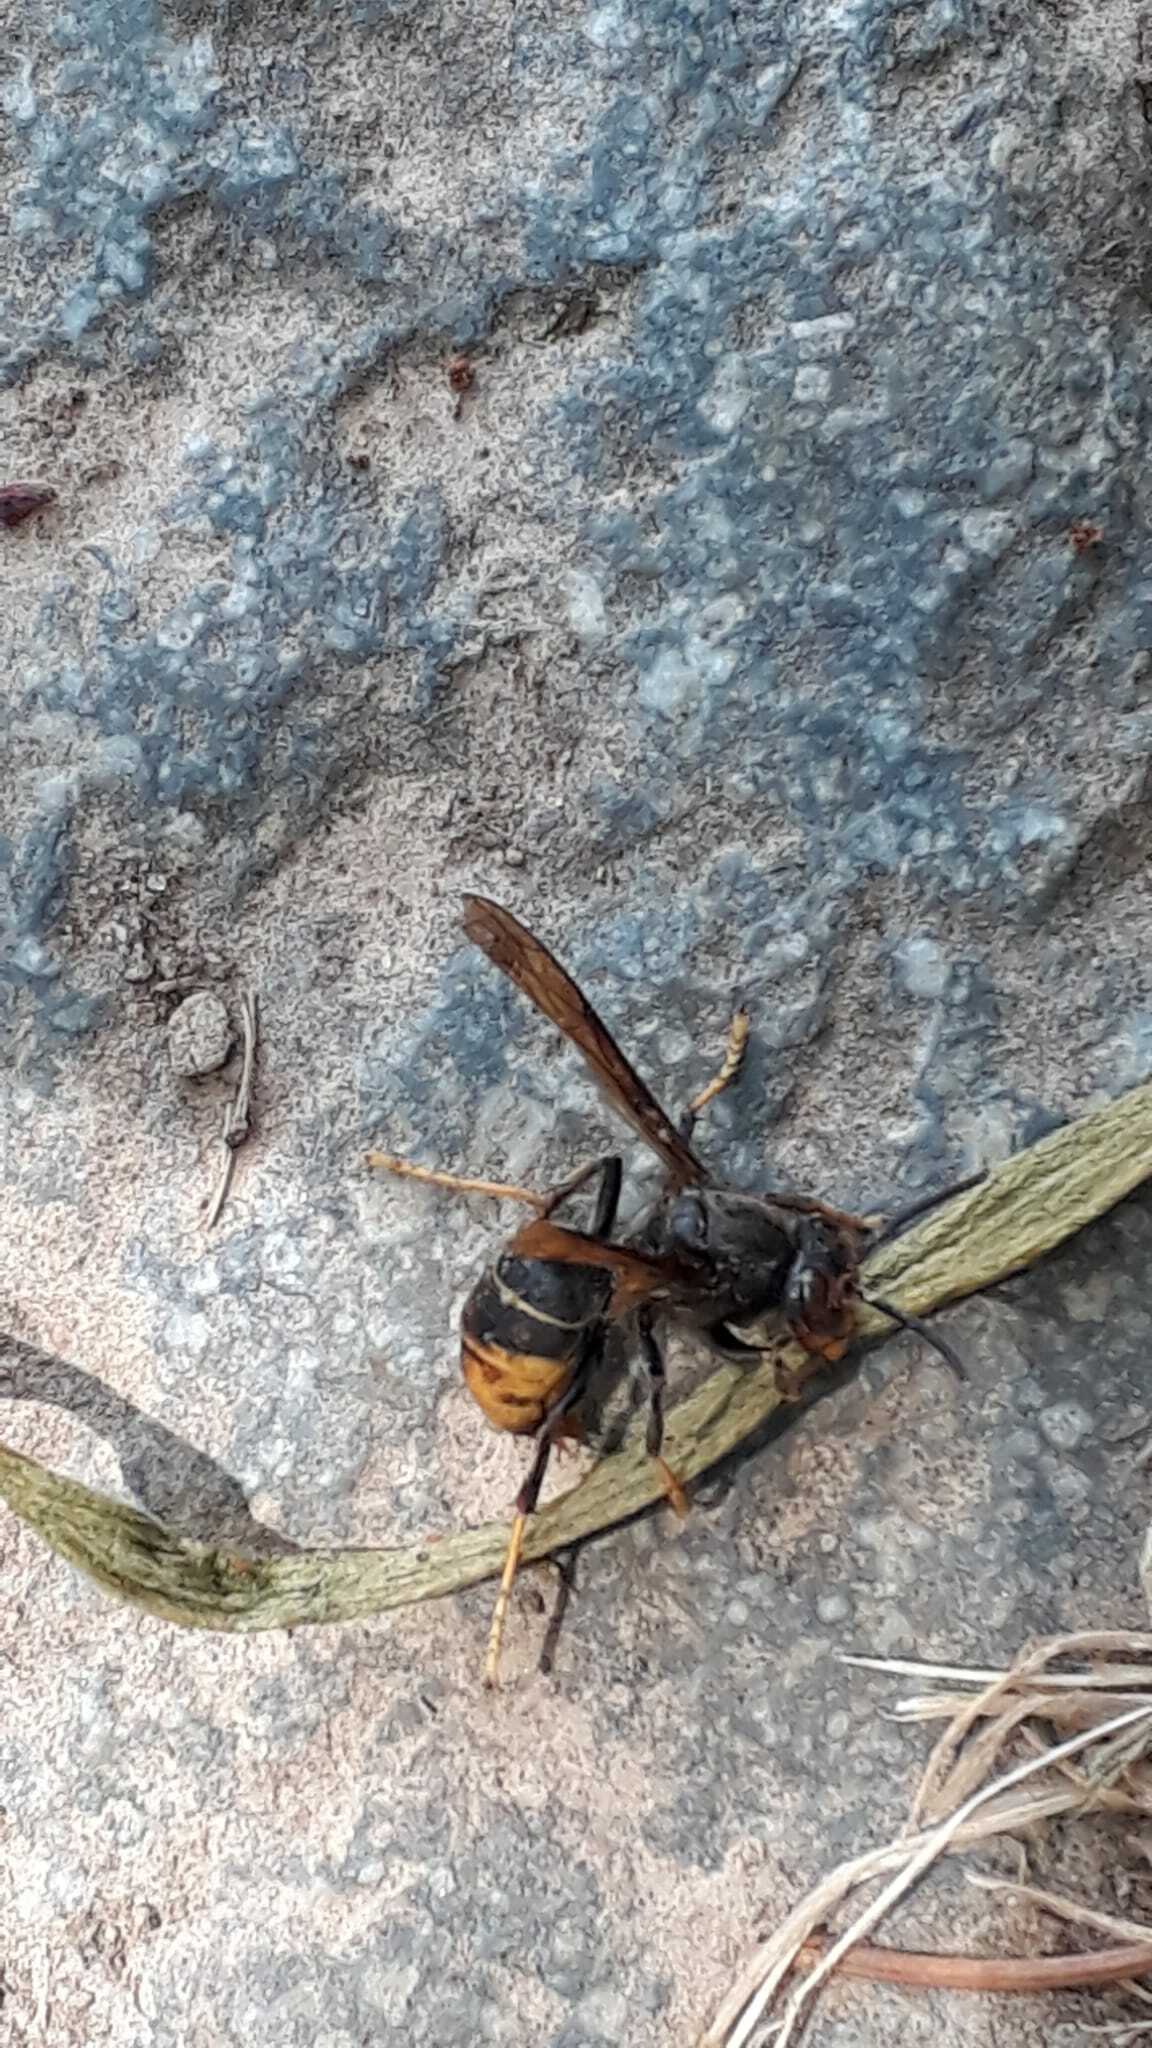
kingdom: Animalia
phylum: Arthropoda
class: Insecta
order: Hymenoptera
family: Vespidae
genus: Vespa
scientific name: Vespa velutina
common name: Asian hornet
